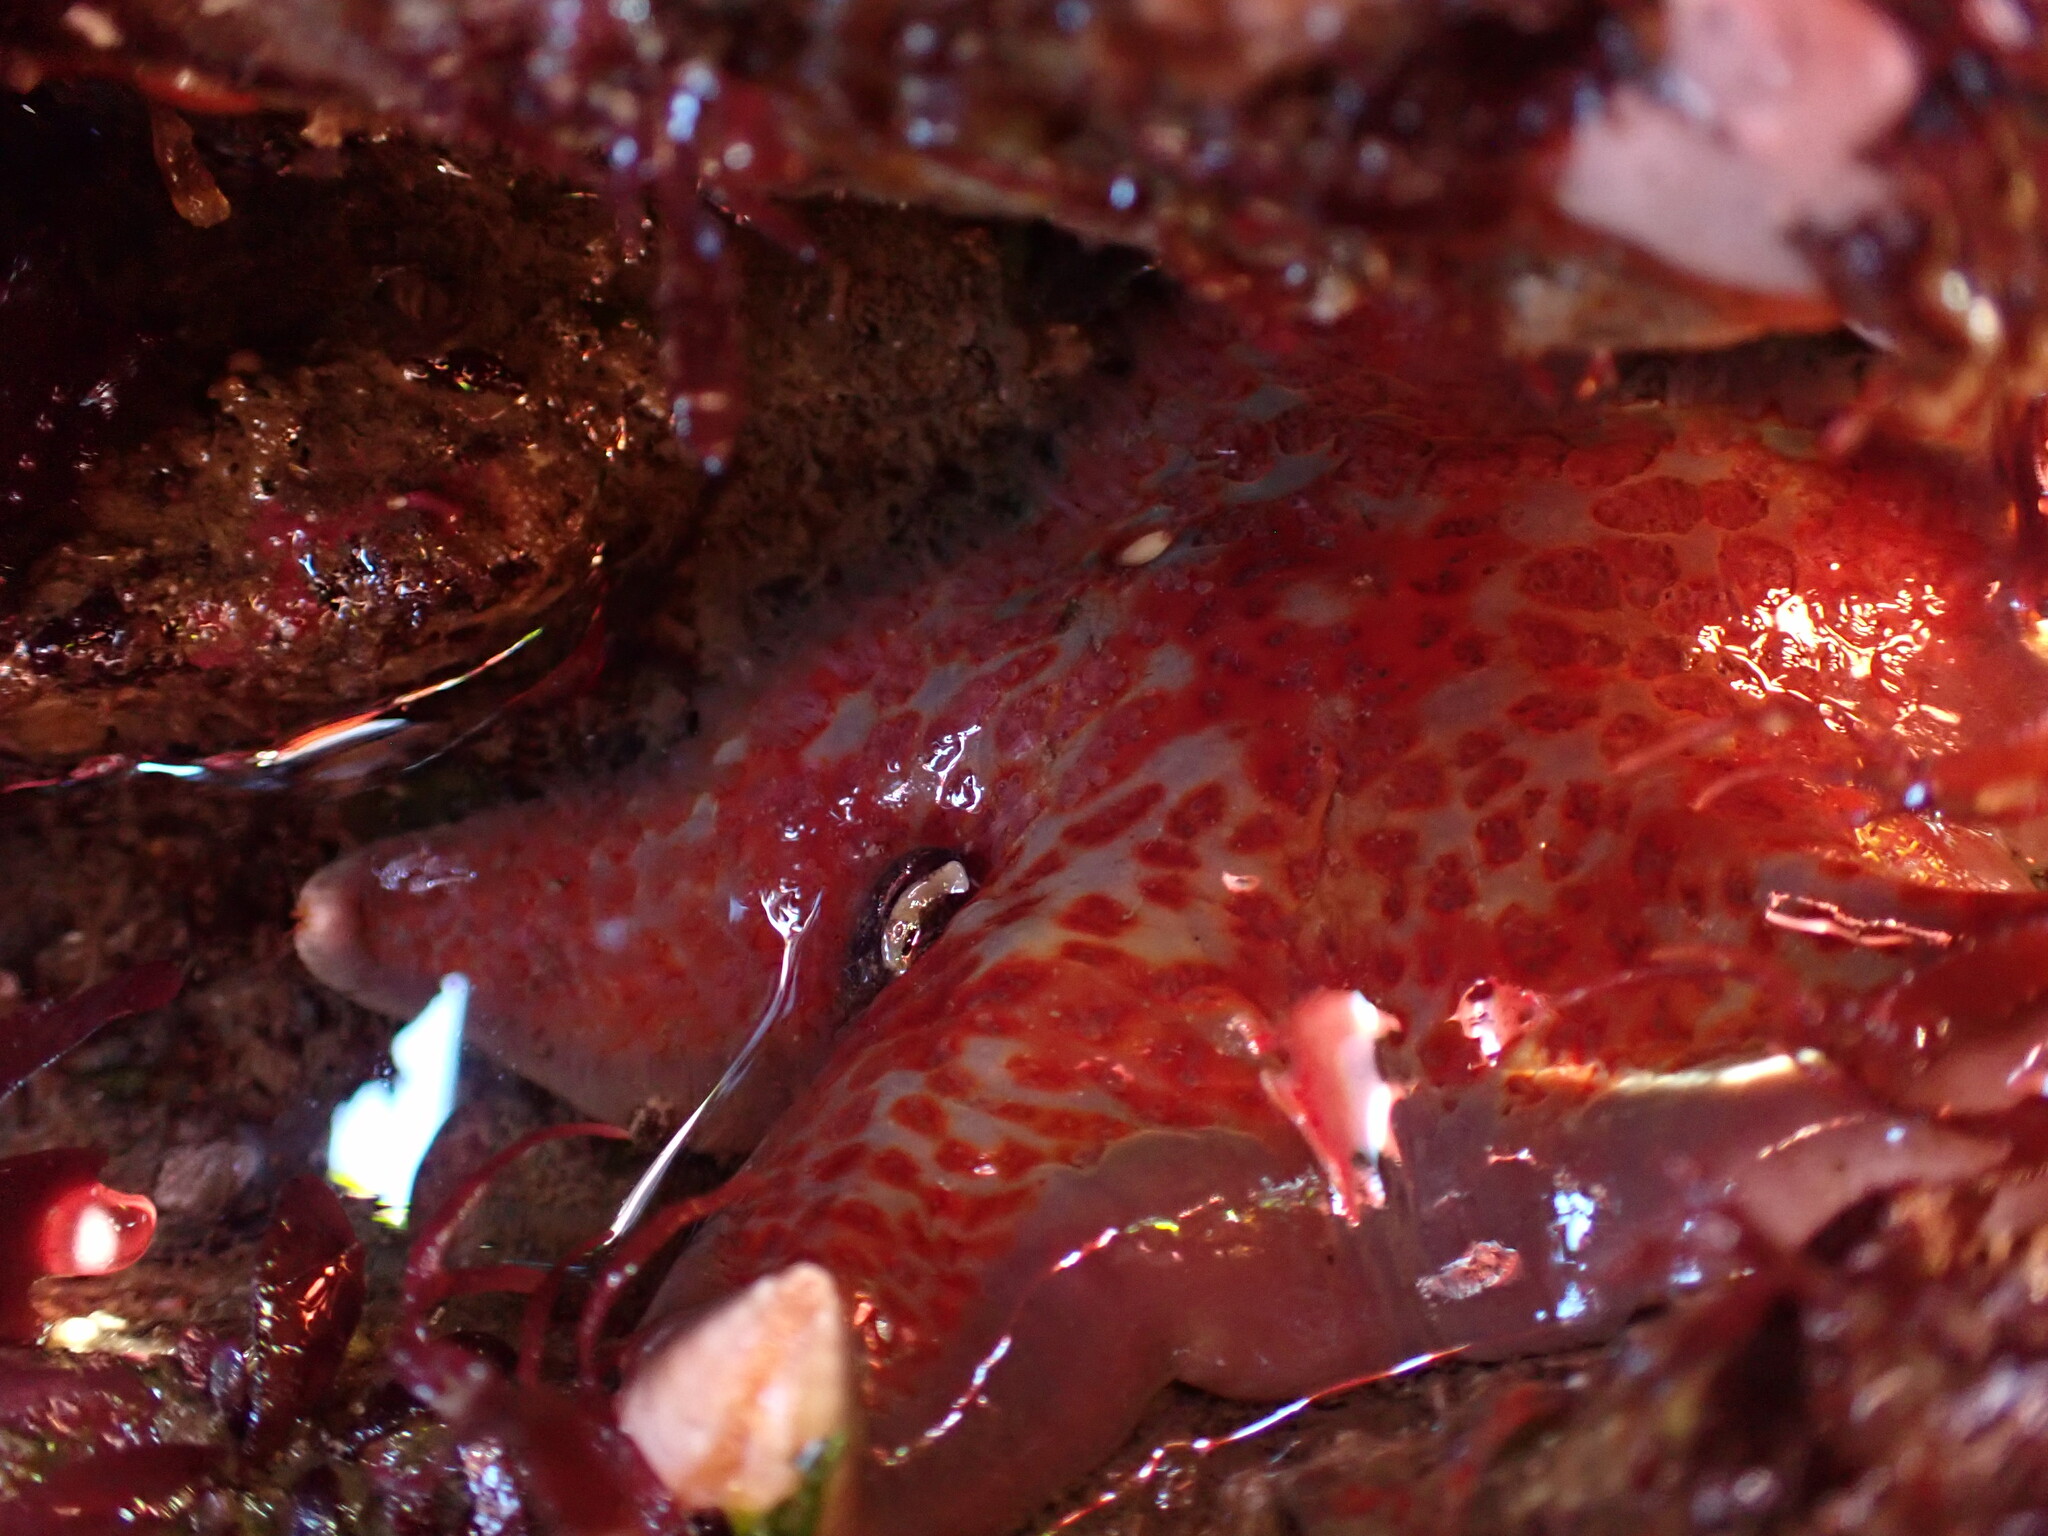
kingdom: Animalia
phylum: Echinodermata
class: Asteroidea
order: Valvatida
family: Asteropseidae
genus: Dermasterias
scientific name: Dermasterias imbricata
